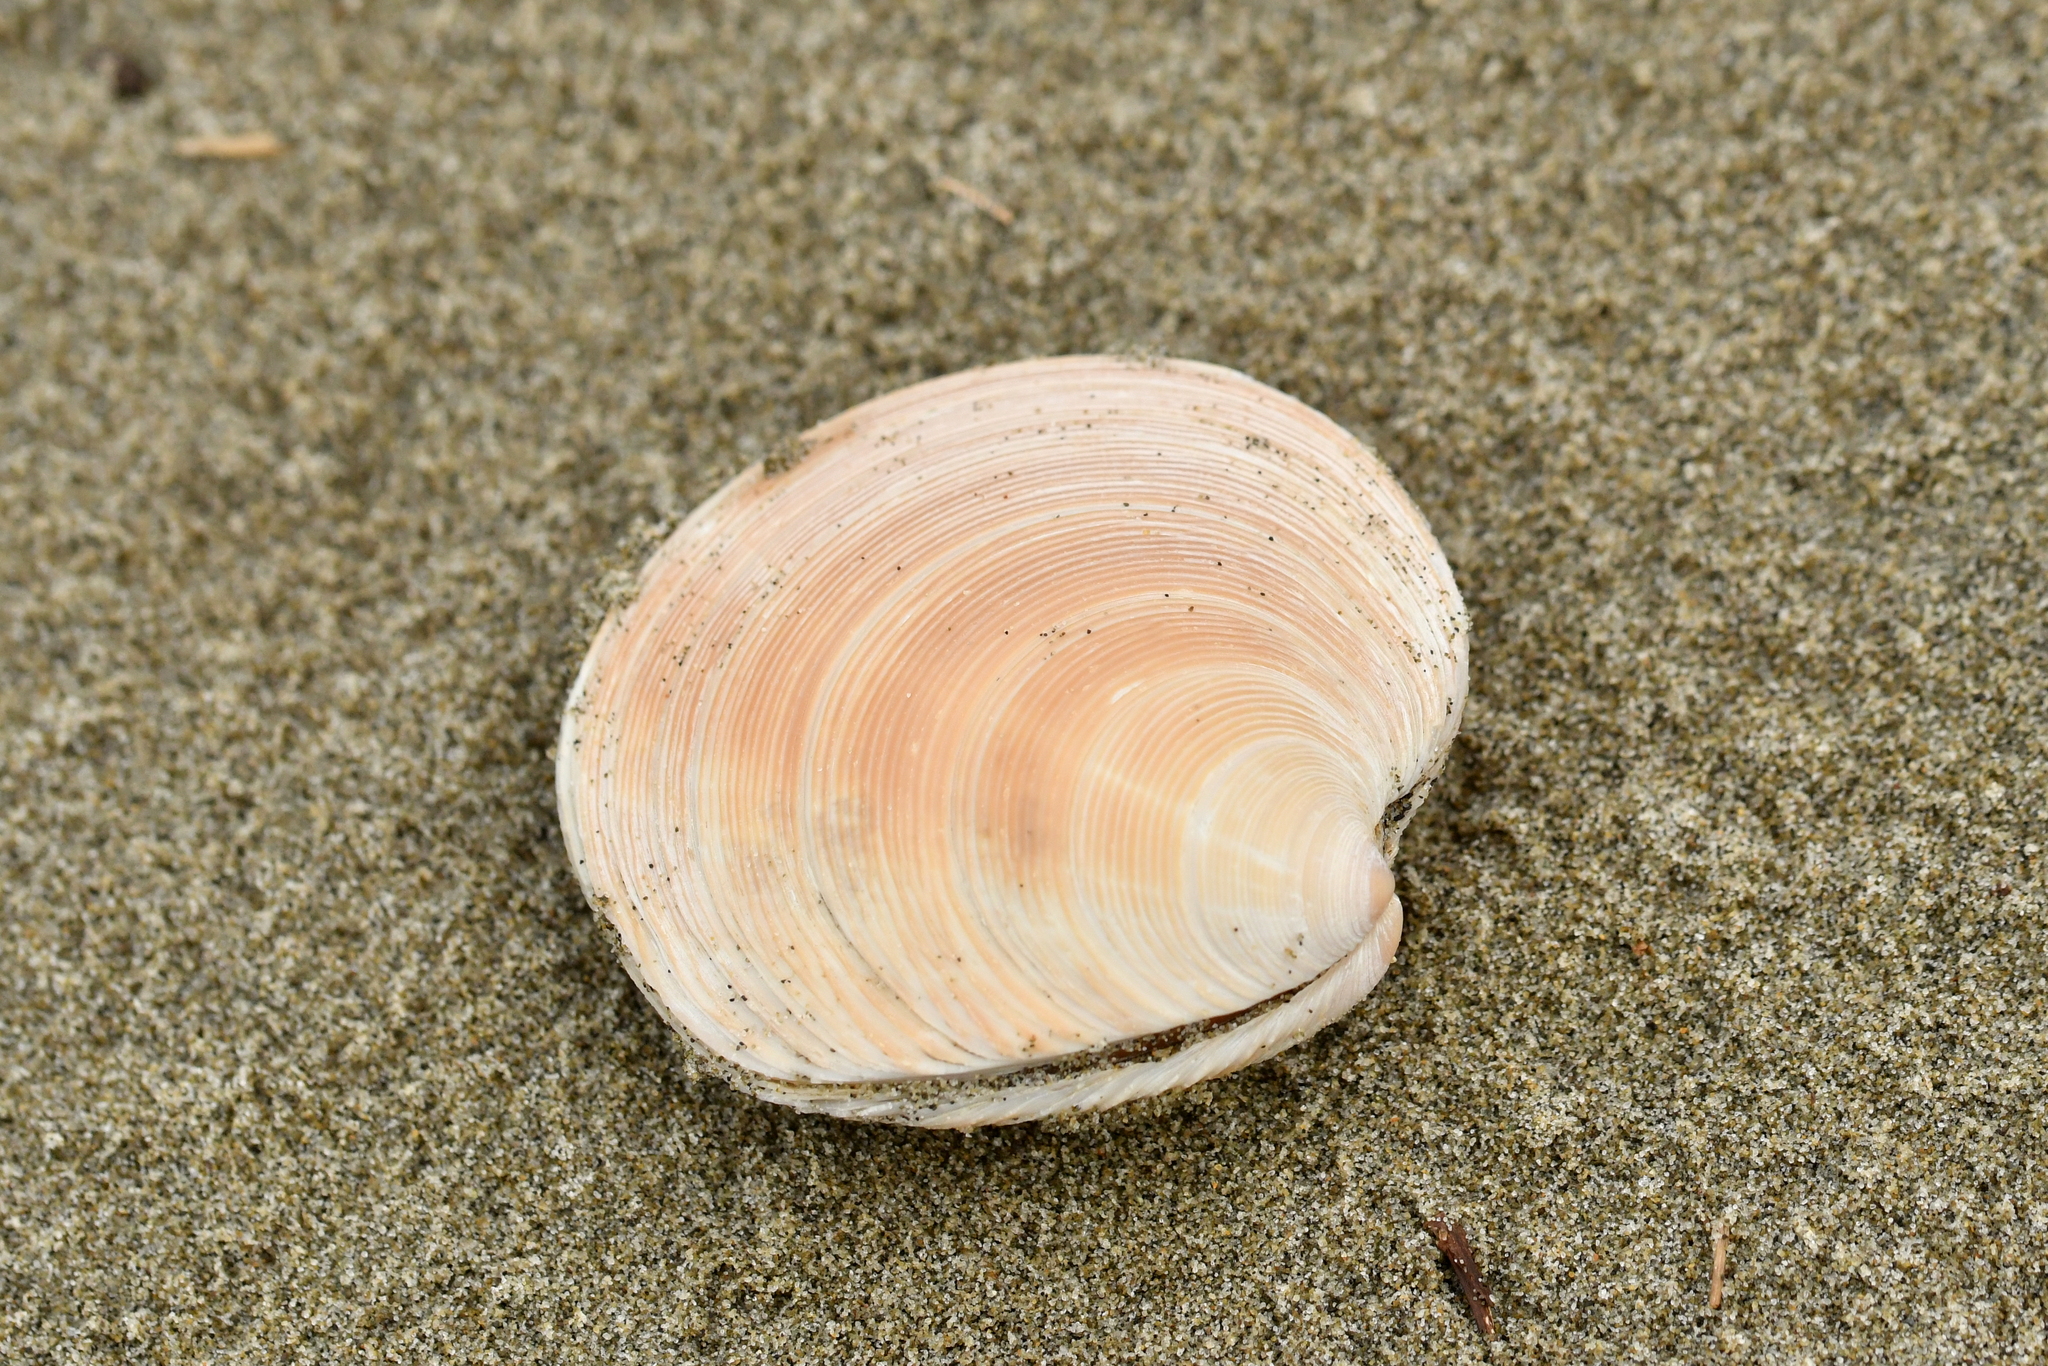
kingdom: Animalia
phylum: Mollusca
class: Bivalvia
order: Venerida
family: Veneridae
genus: Dosinia
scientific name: Dosinia anus
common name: Old-woman dosinia
